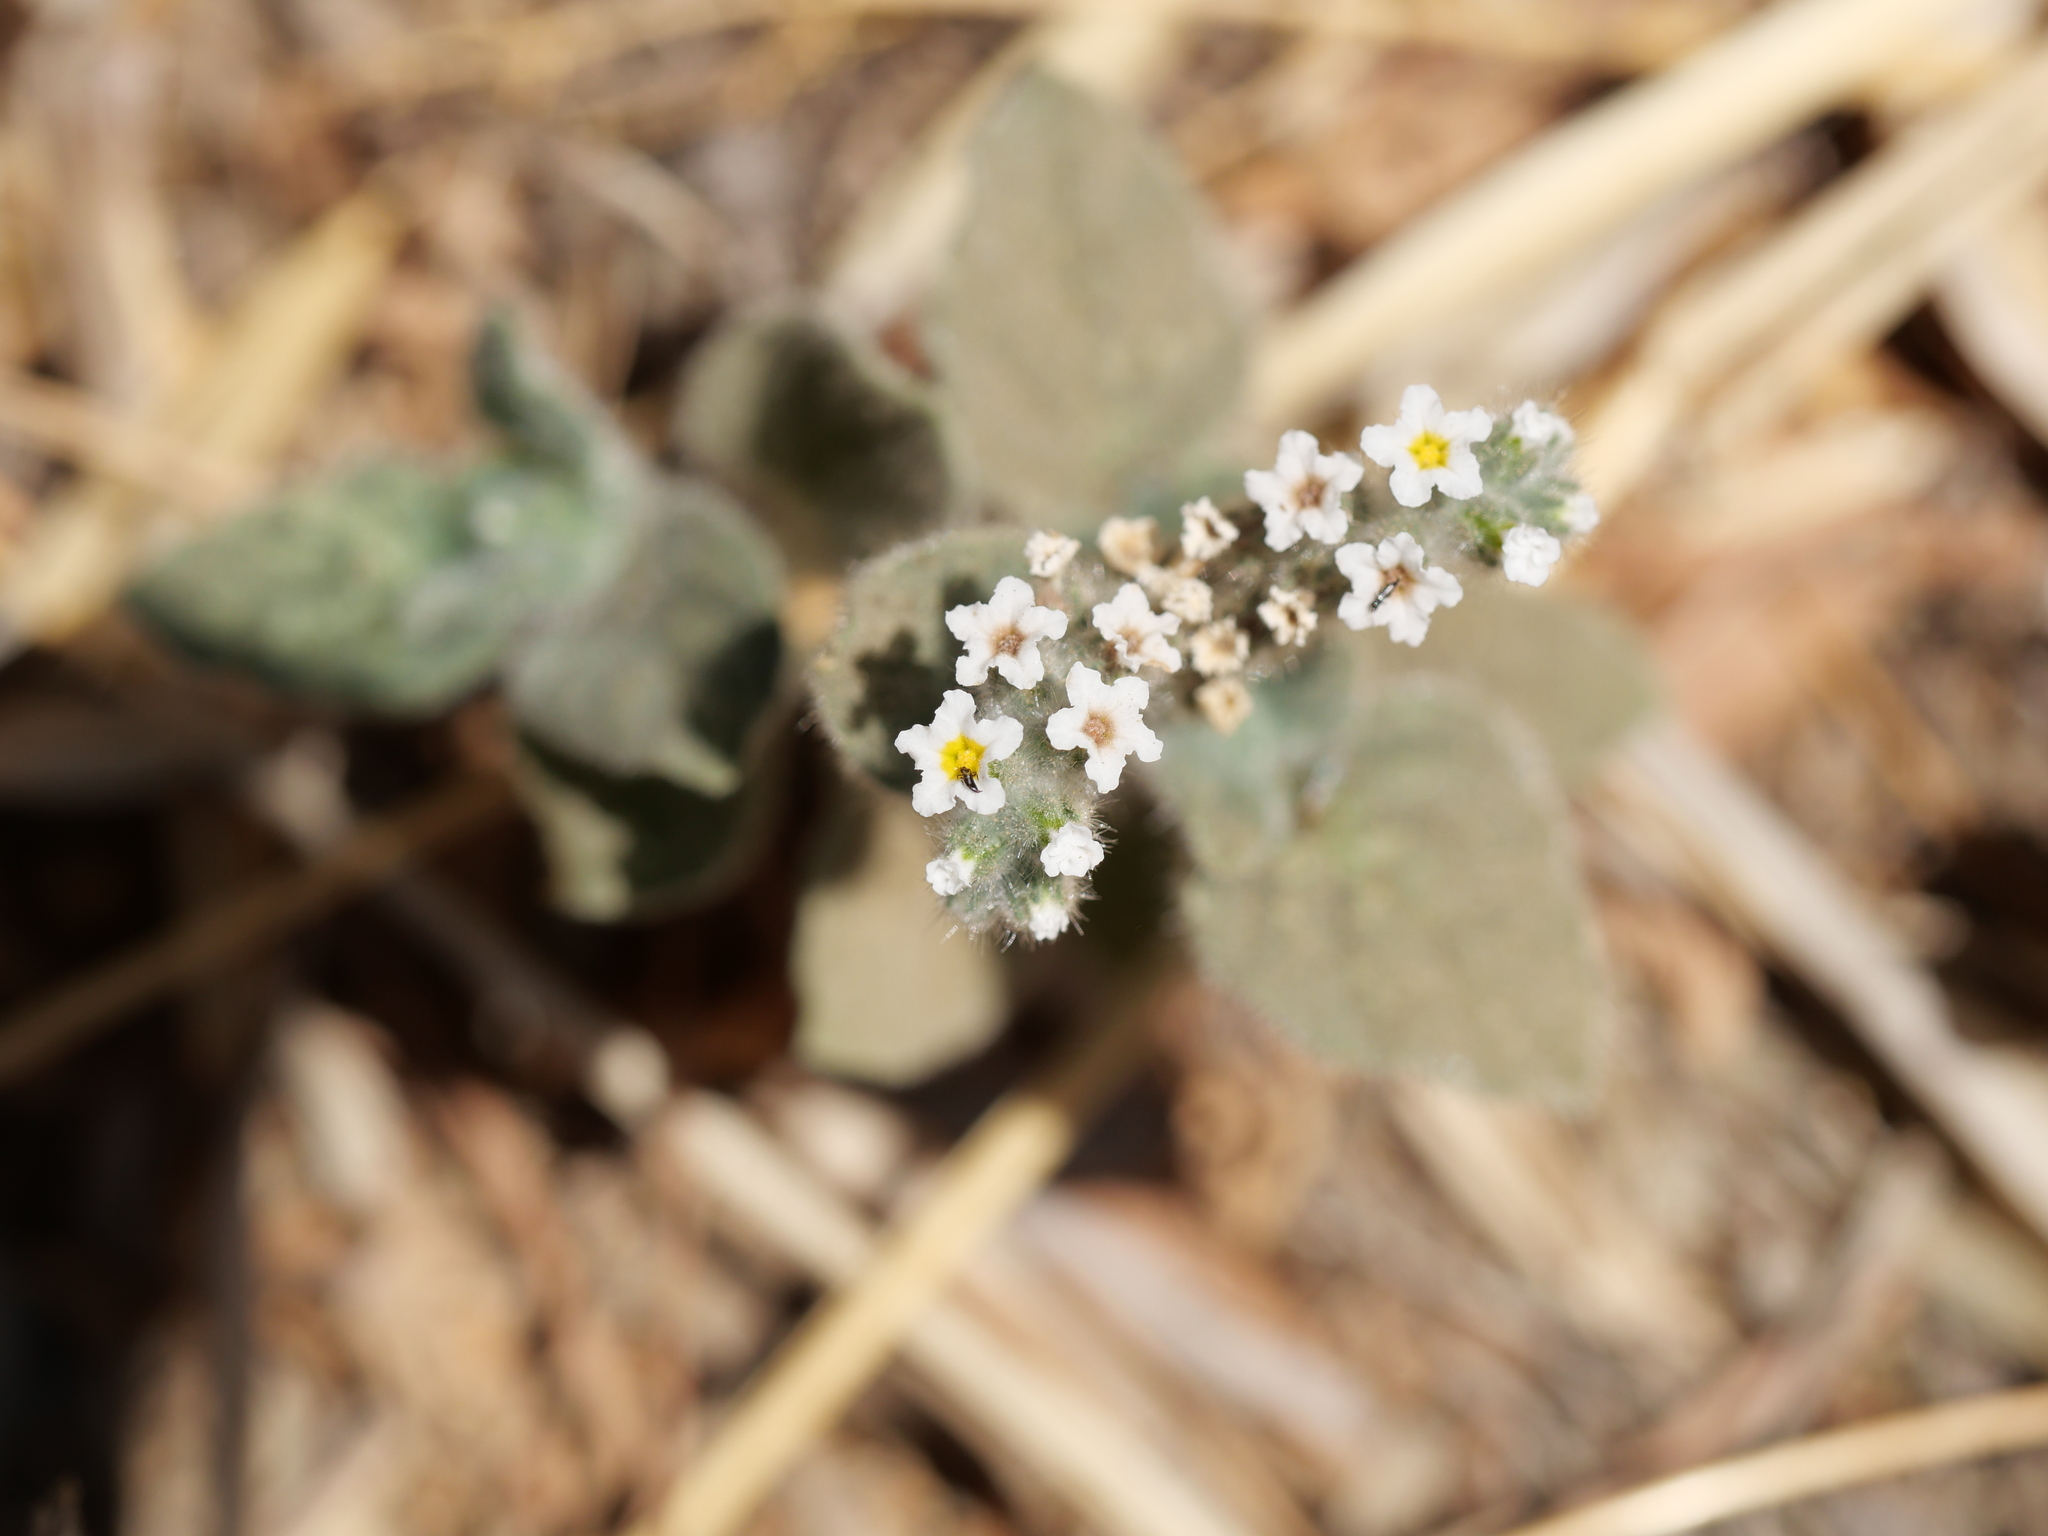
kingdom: Plantae
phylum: Tracheophyta
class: Magnoliopsida
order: Boraginales
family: Heliotropiaceae
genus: Heliotropium
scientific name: Heliotropium hirsutissimum
